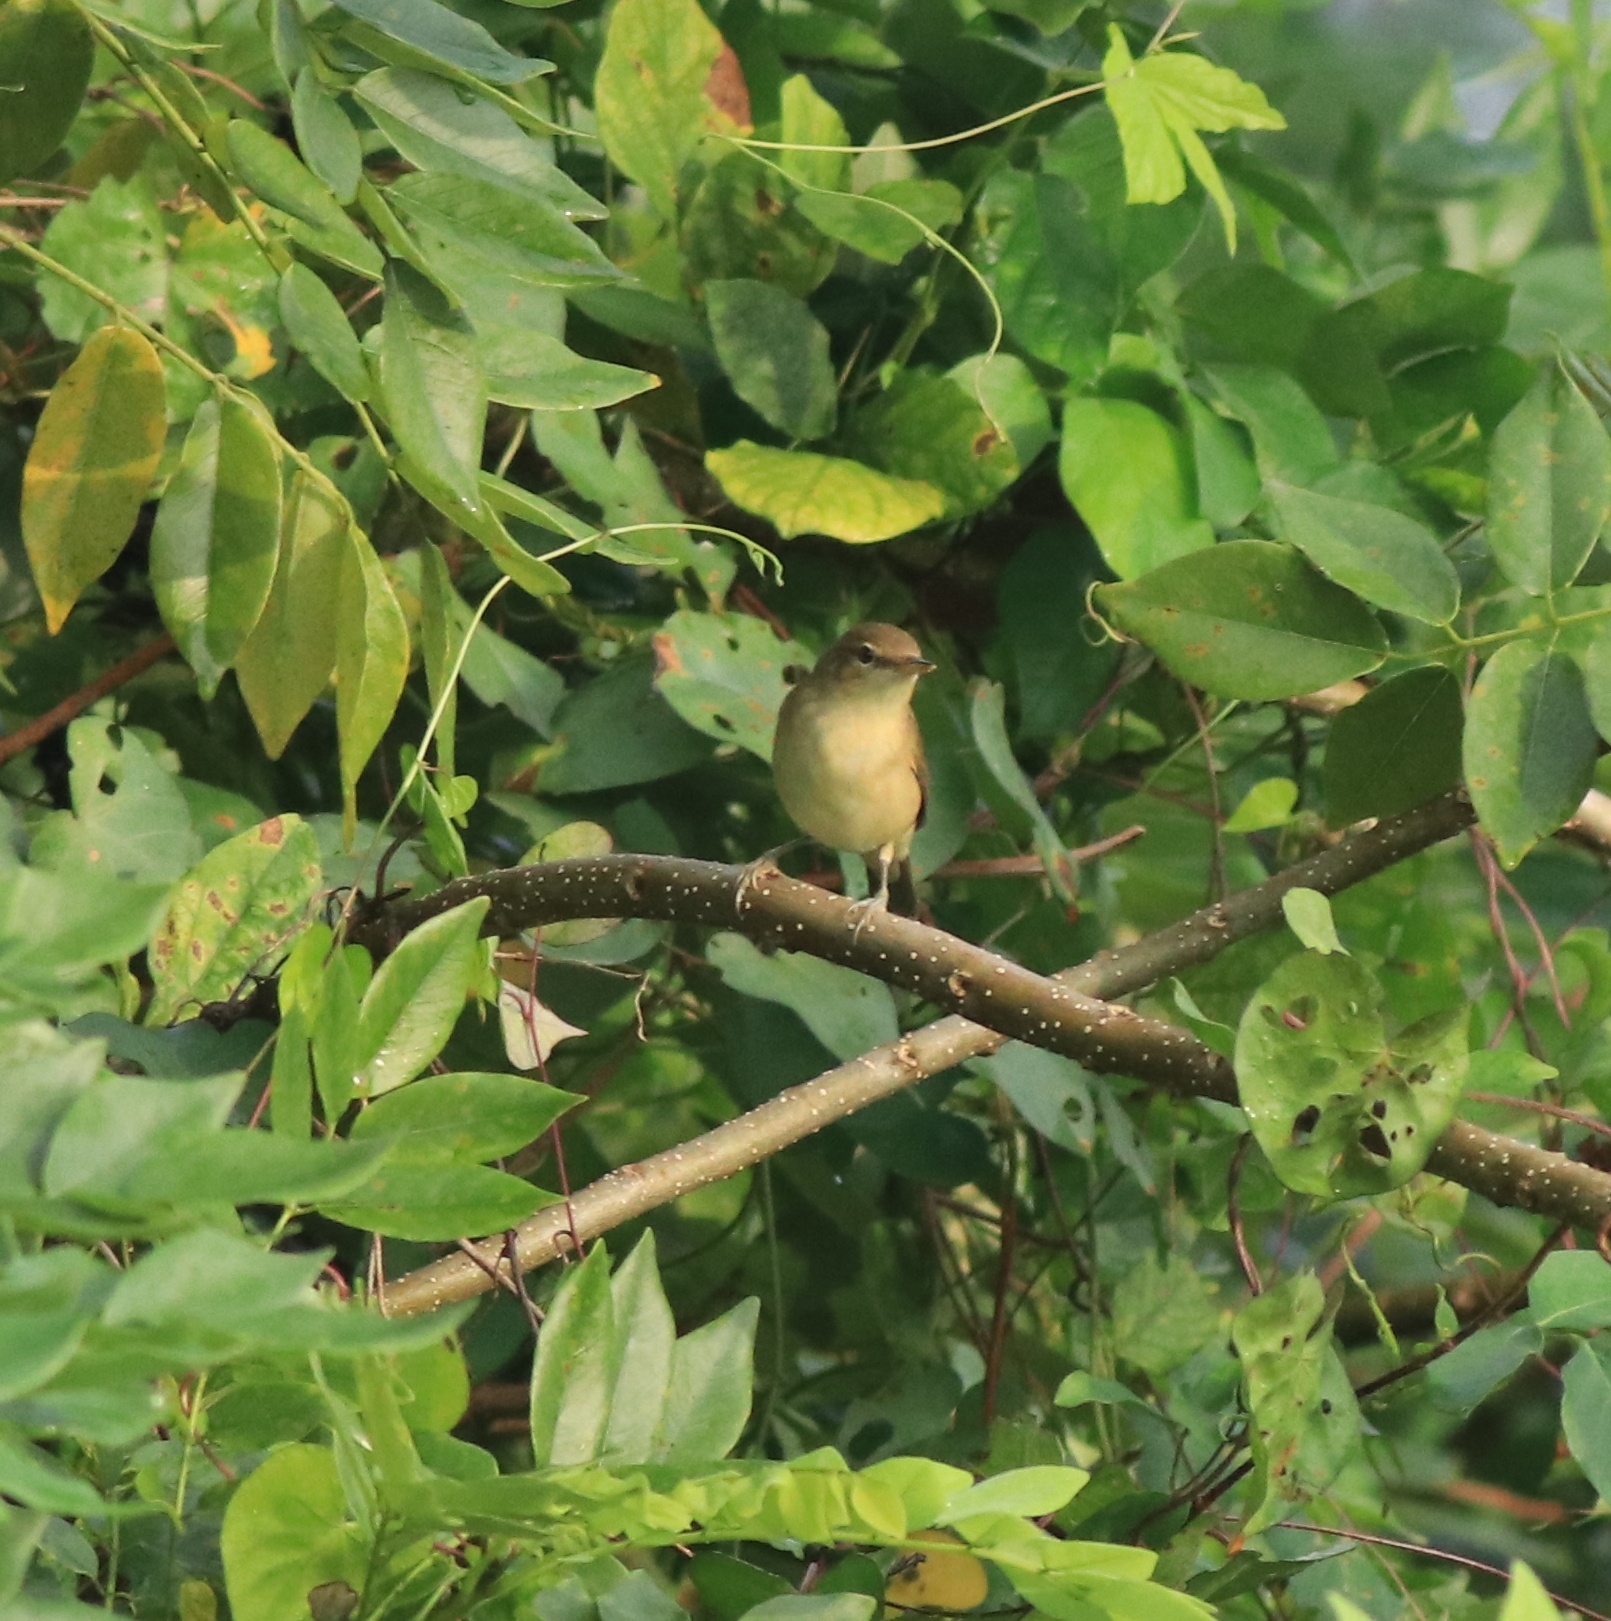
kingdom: Animalia
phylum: Chordata
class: Aves
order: Passeriformes
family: Acrocephalidae
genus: Acrocephalus
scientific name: Acrocephalus dumetorum
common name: Blyth's reed warbler
